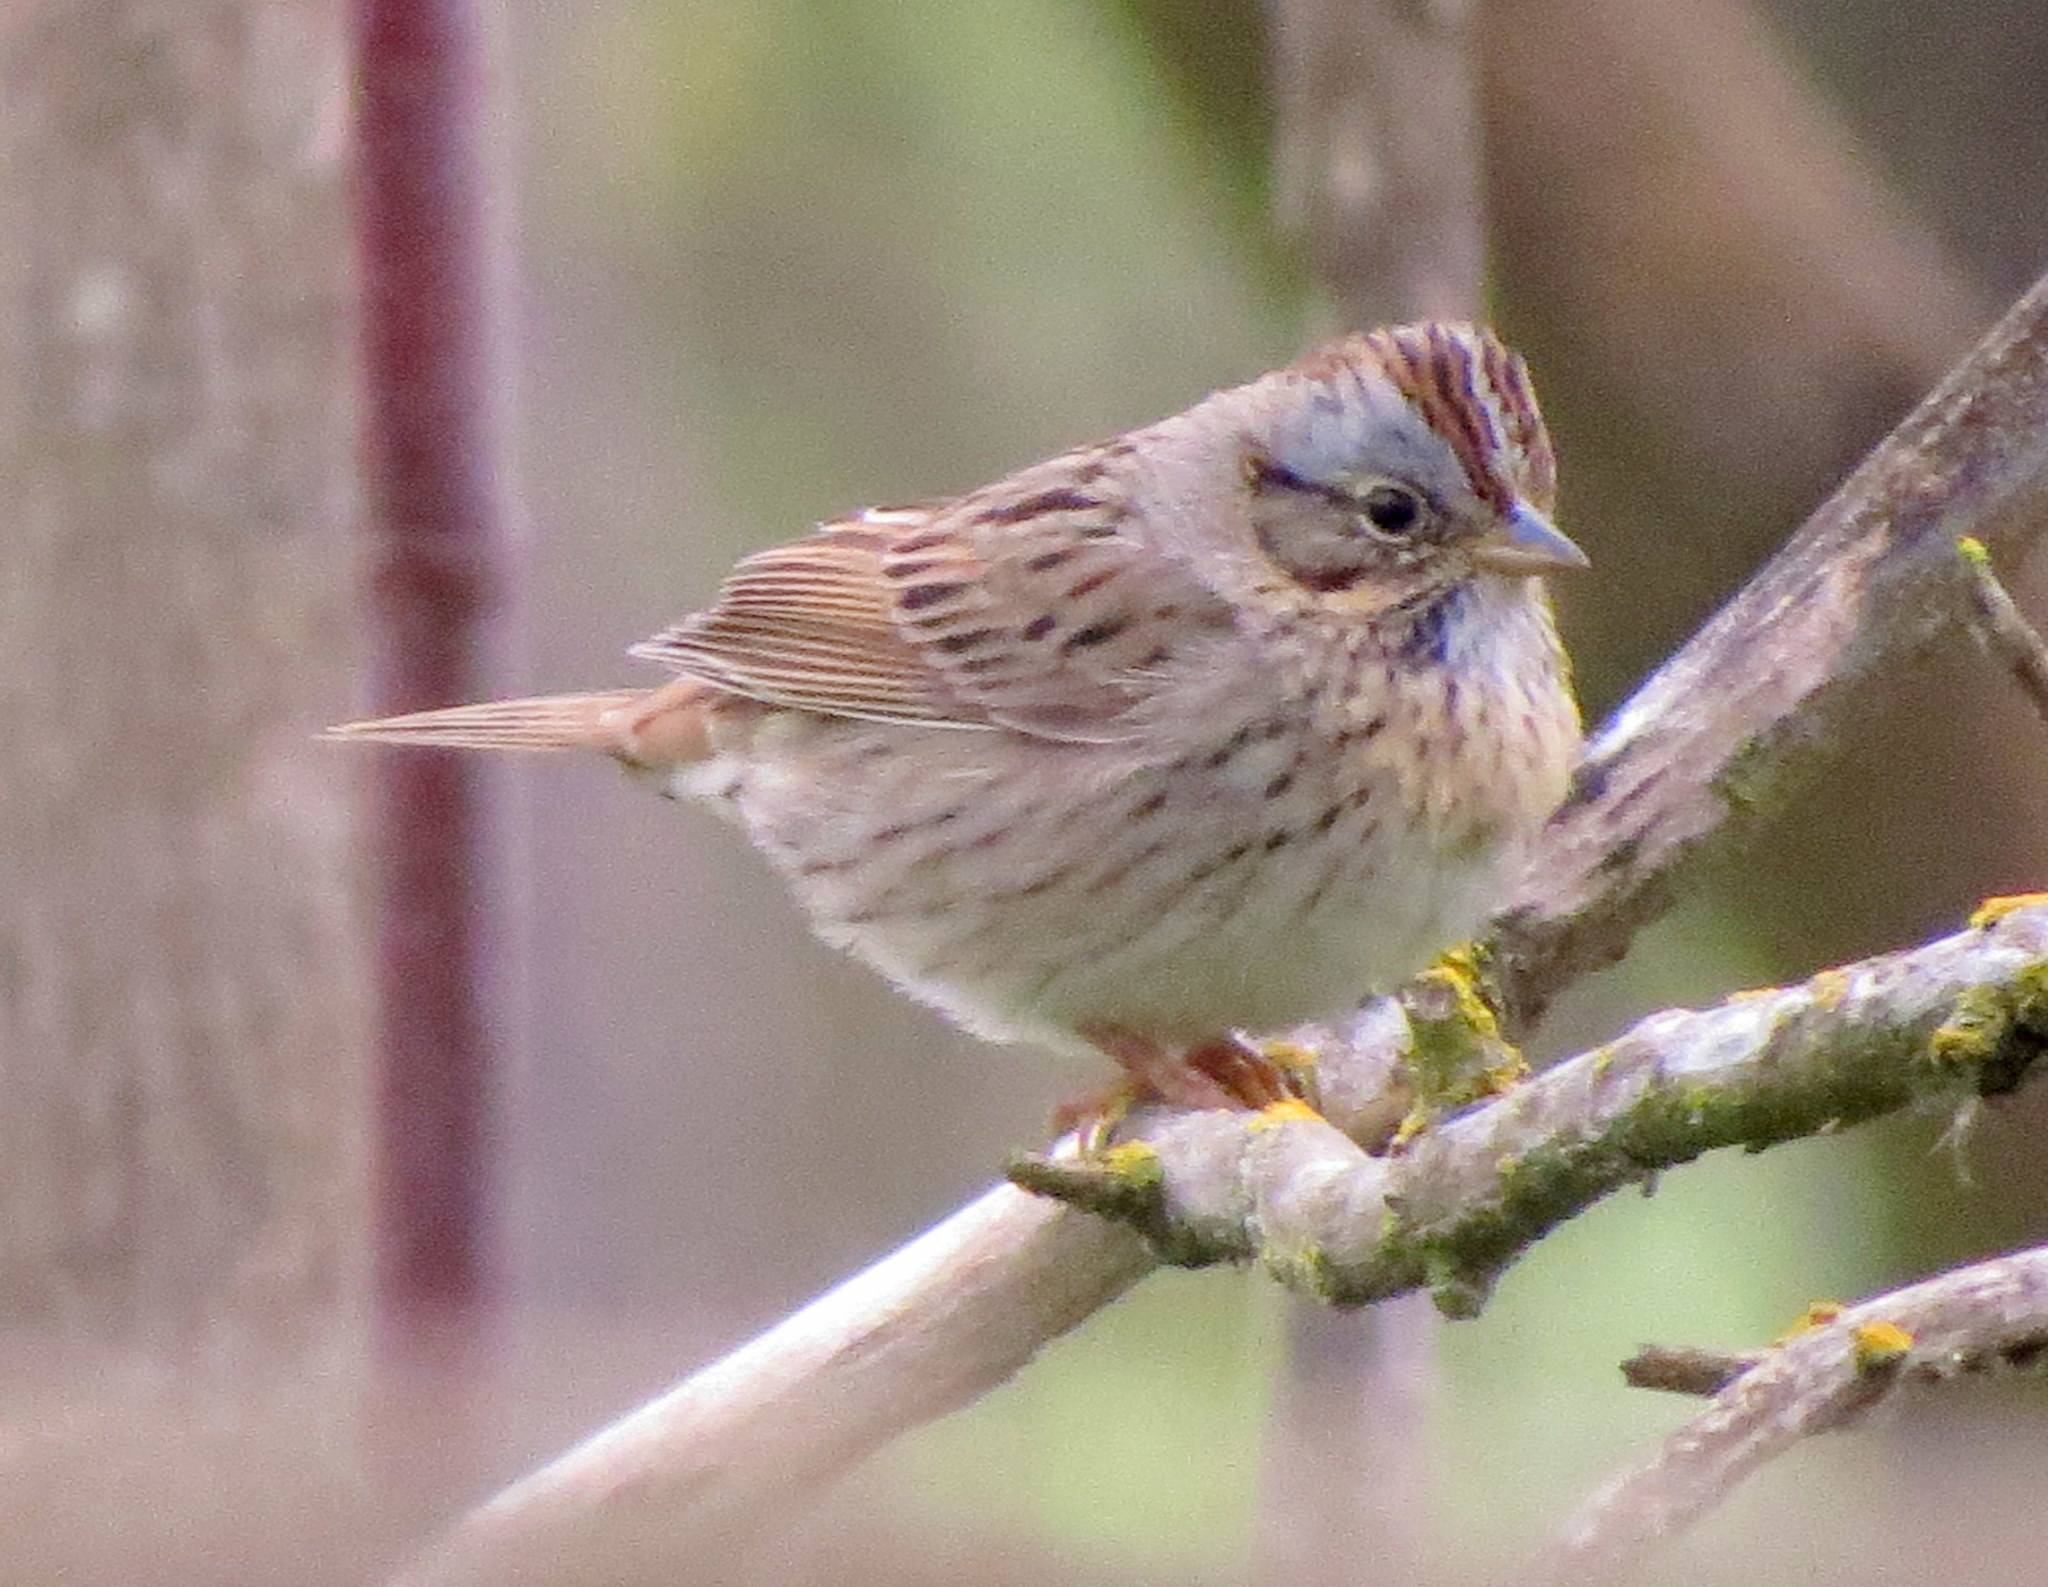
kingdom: Animalia
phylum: Chordata
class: Aves
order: Passeriformes
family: Passerellidae
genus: Melospiza
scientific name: Melospiza lincolnii
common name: Lincoln's sparrow
